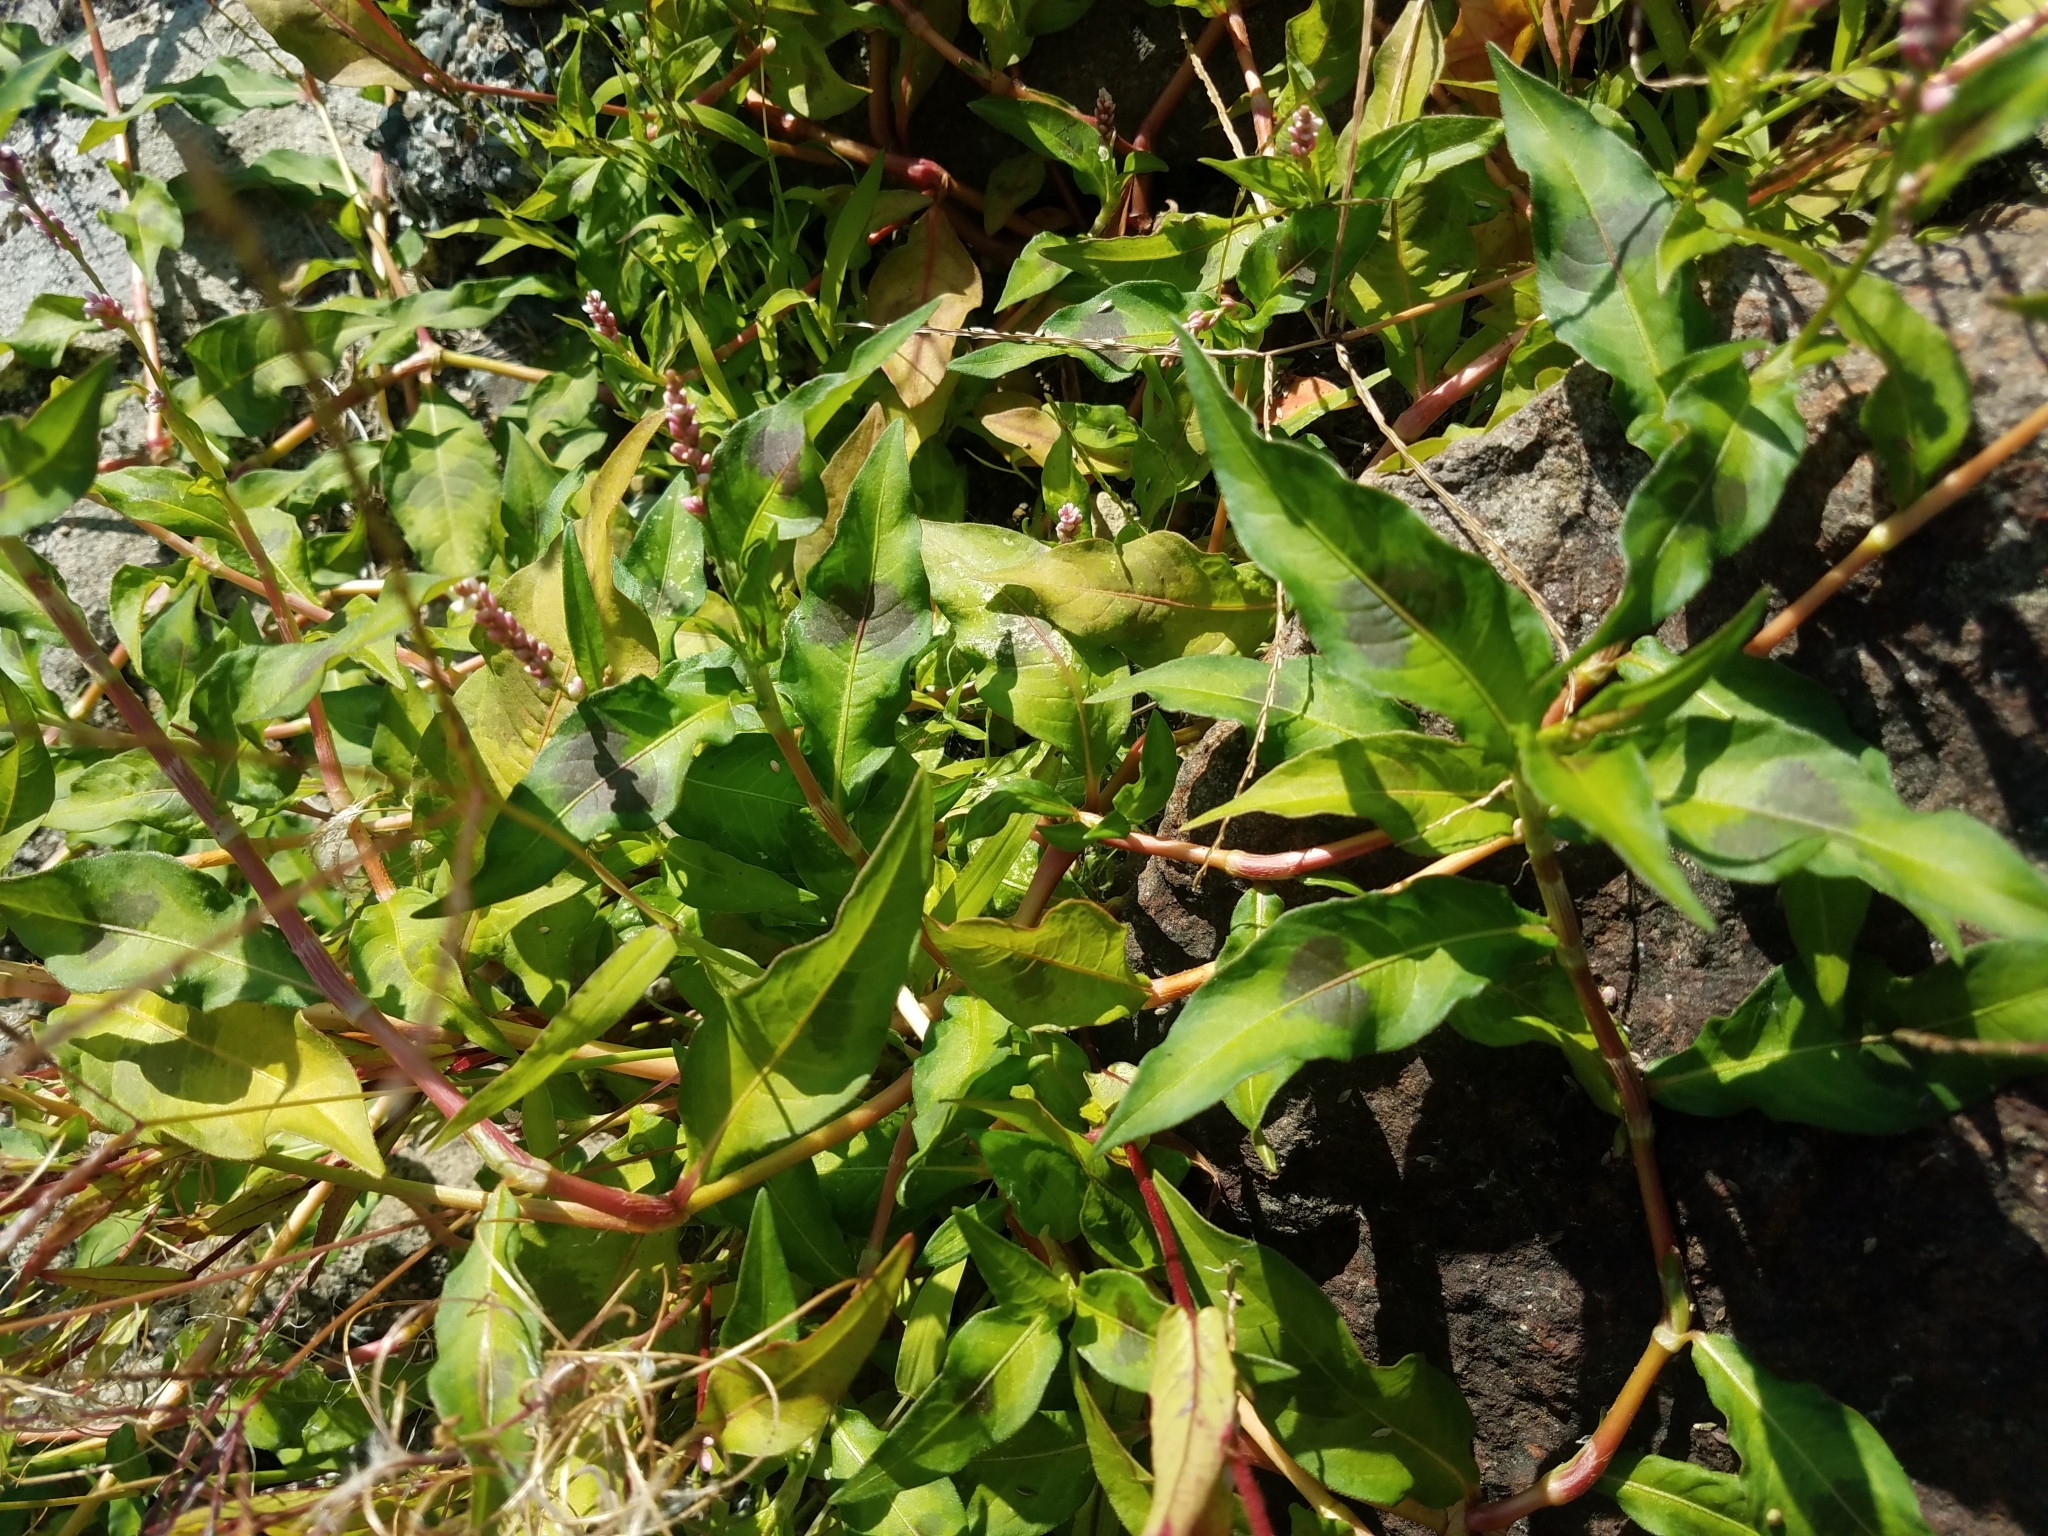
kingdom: Plantae
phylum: Tracheophyta
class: Magnoliopsida
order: Caryophyllales
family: Polygonaceae
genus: Persicaria
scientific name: Persicaria maculosa
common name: Redshank
